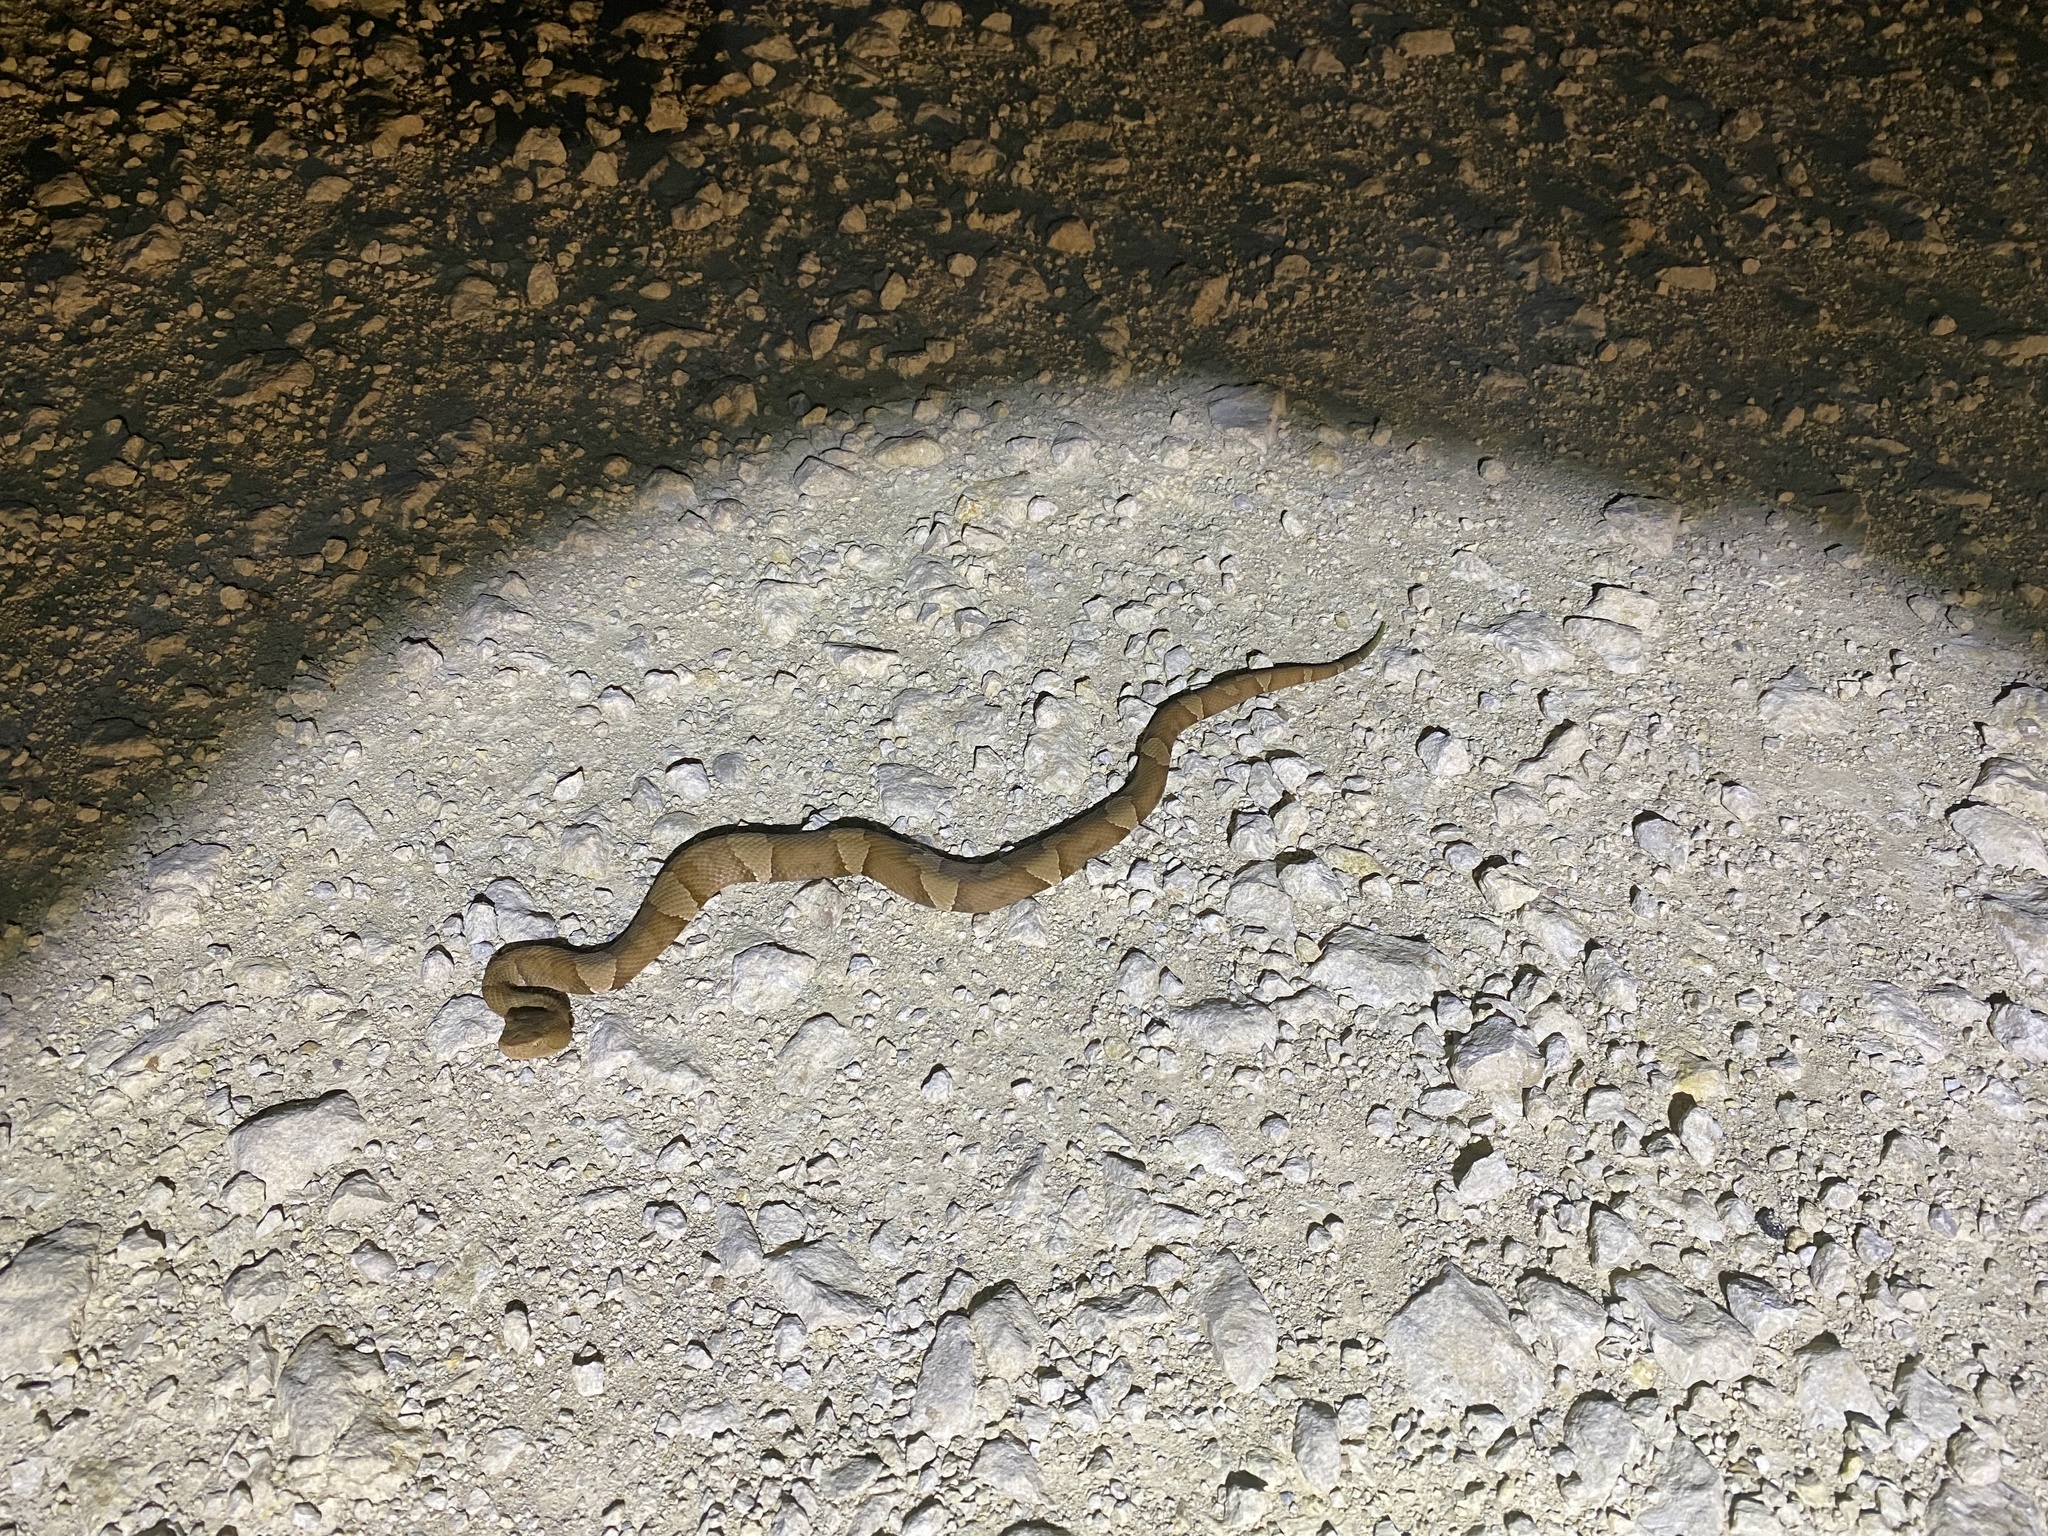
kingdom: Animalia
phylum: Chordata
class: Squamata
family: Viperidae
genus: Agkistrodon
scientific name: Agkistrodon laticinctus
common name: Broad-banded copperhead
